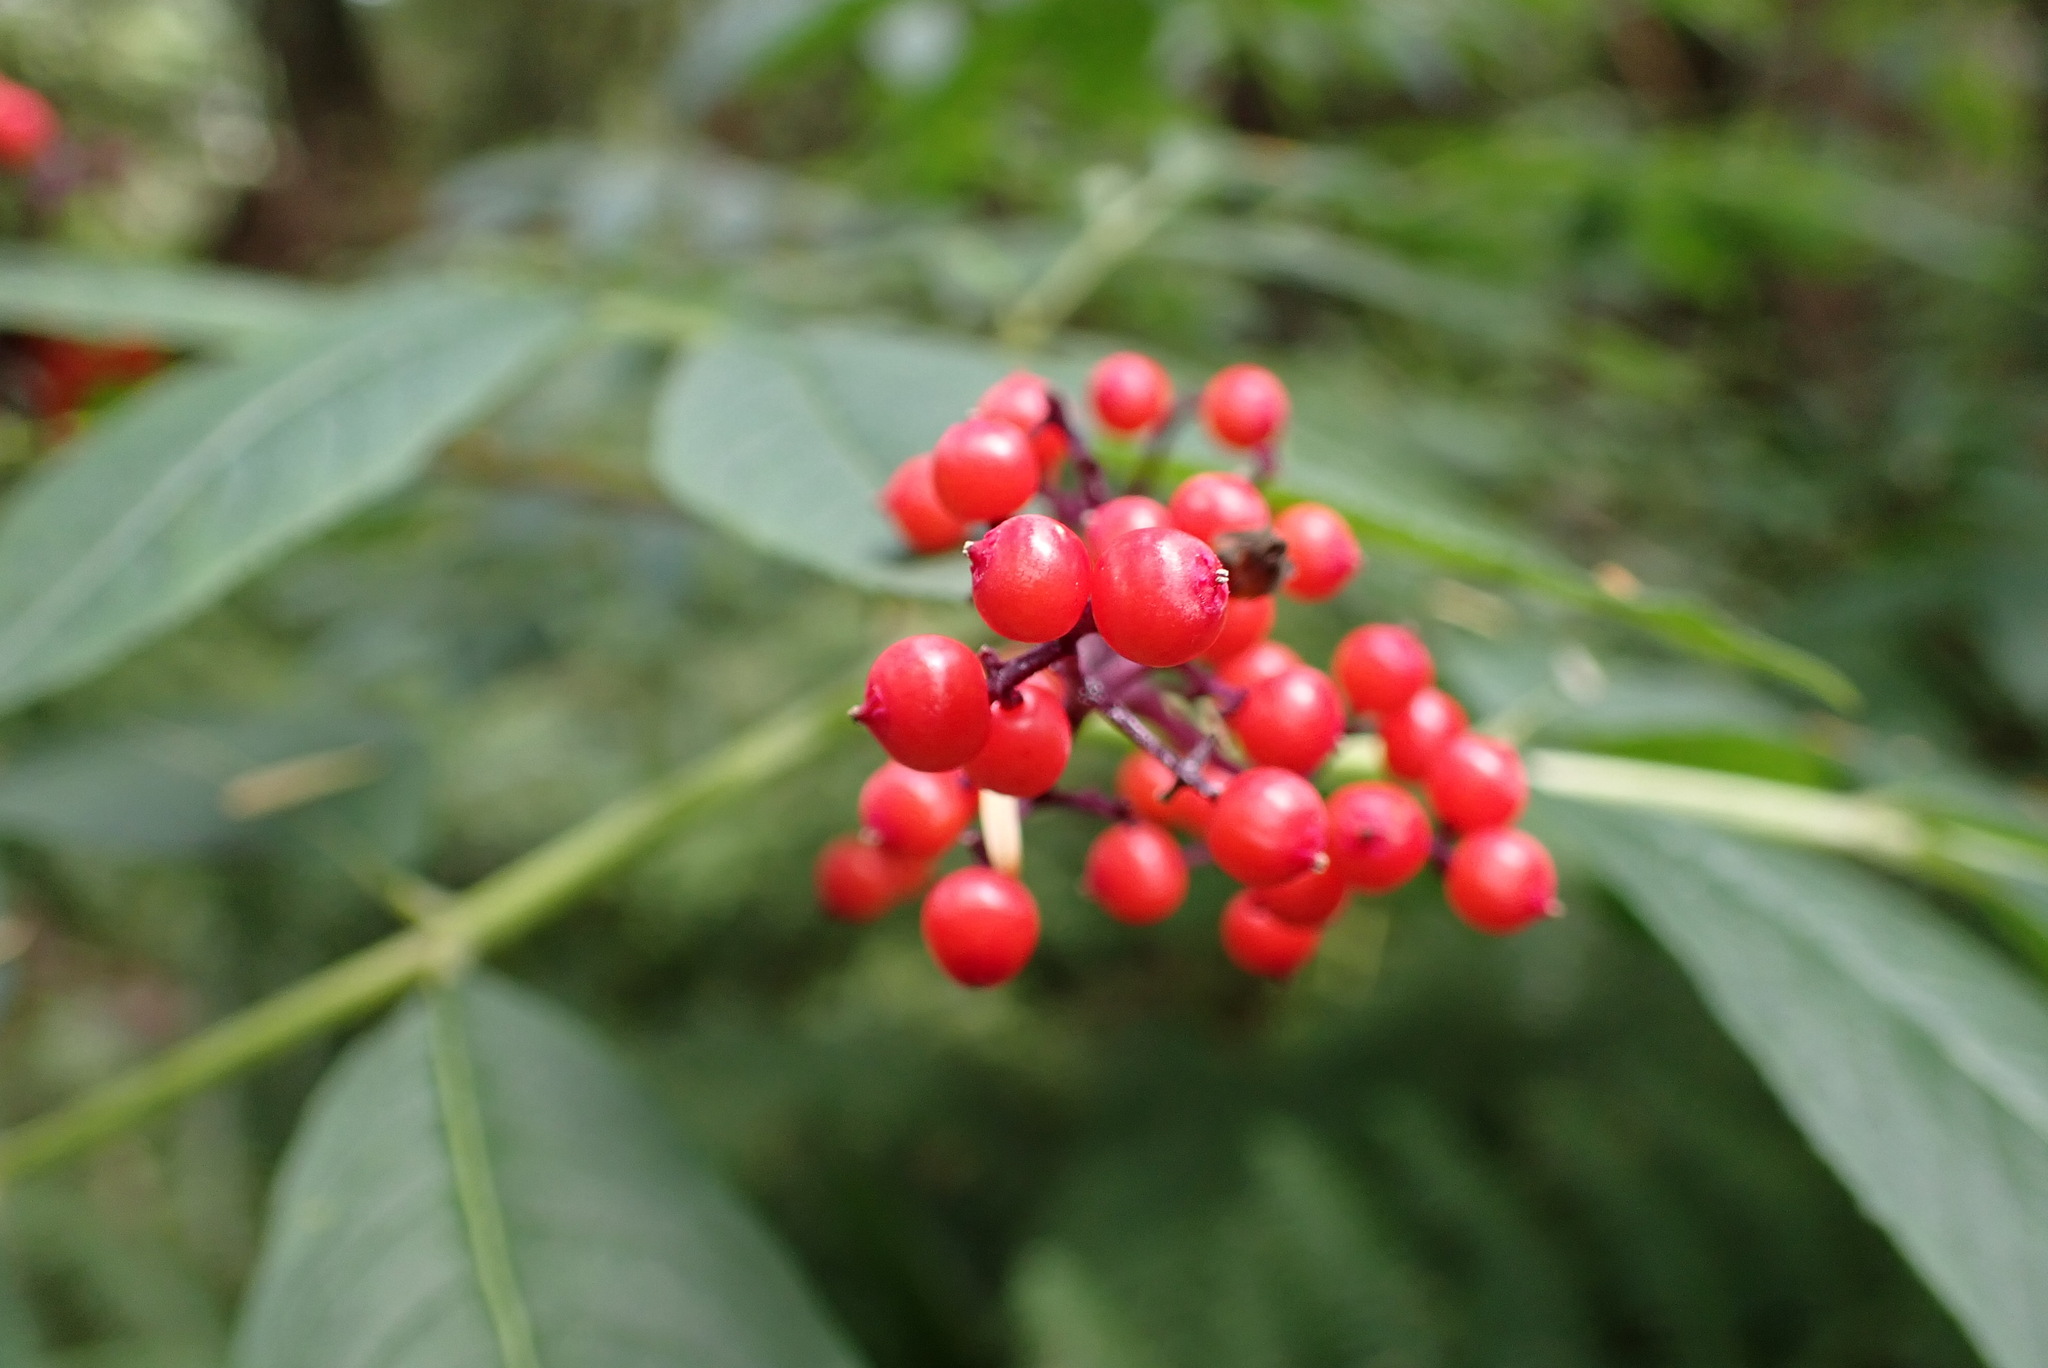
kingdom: Plantae
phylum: Tracheophyta
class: Magnoliopsida
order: Dipsacales
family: Viburnaceae
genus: Sambucus
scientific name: Sambucus racemosa
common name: Red-berried elder
